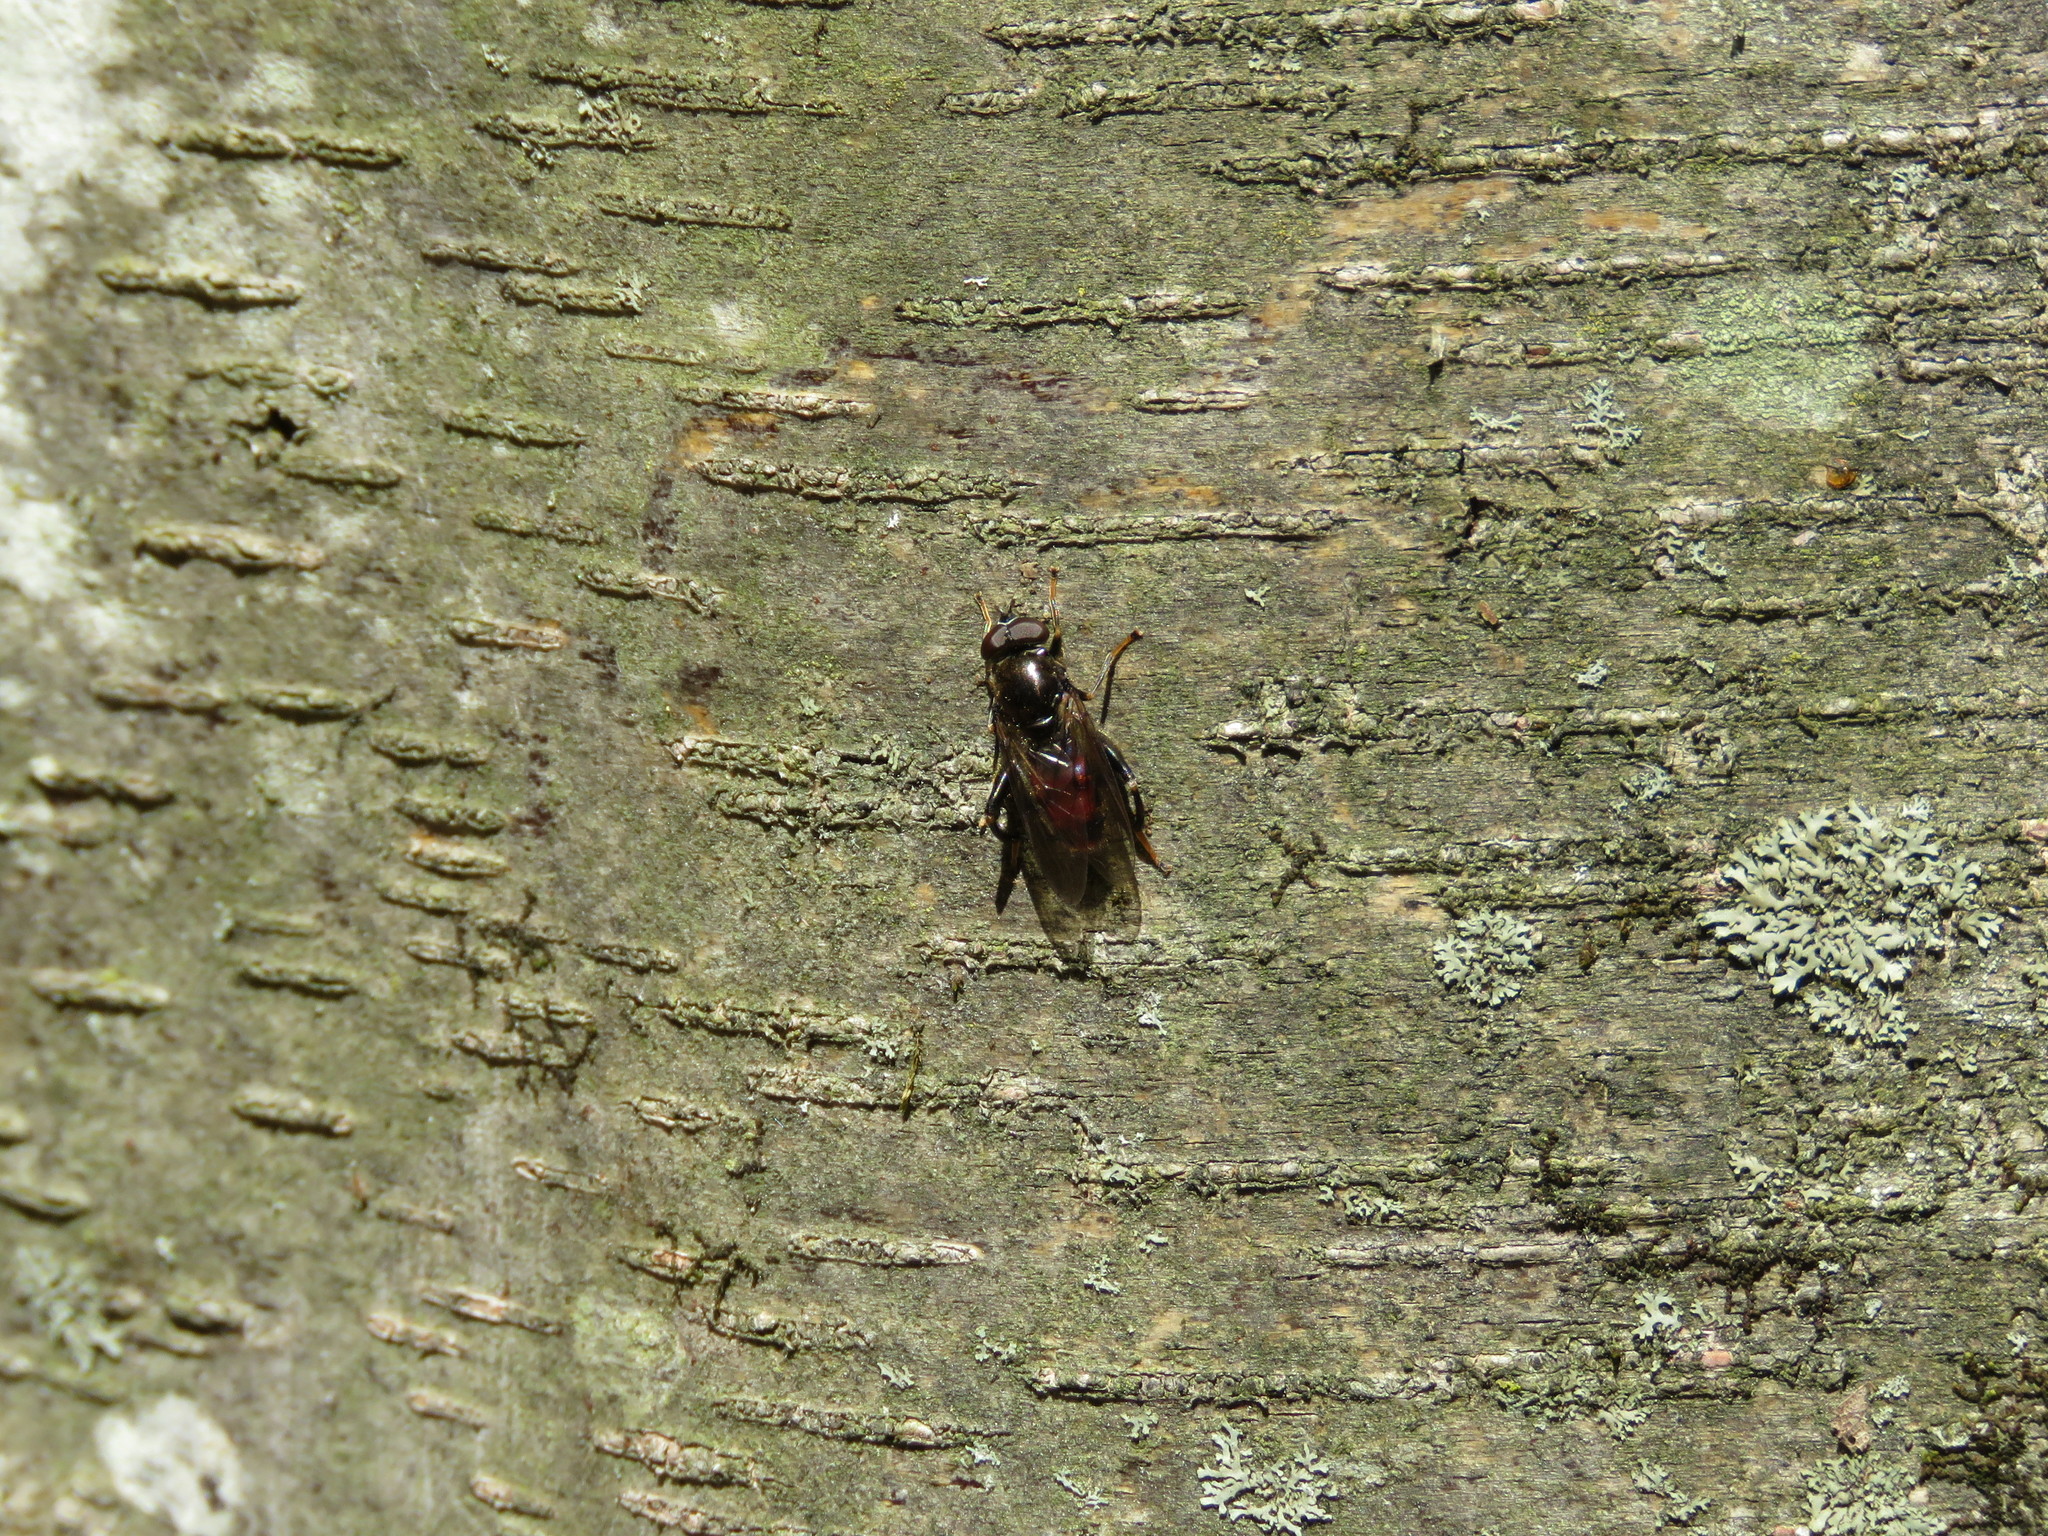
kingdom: Animalia
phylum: Arthropoda
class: Insecta
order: Diptera
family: Syrphidae
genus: Chalcosyrphus
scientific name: Chalcosyrphus libo
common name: Long-haired forest fly
